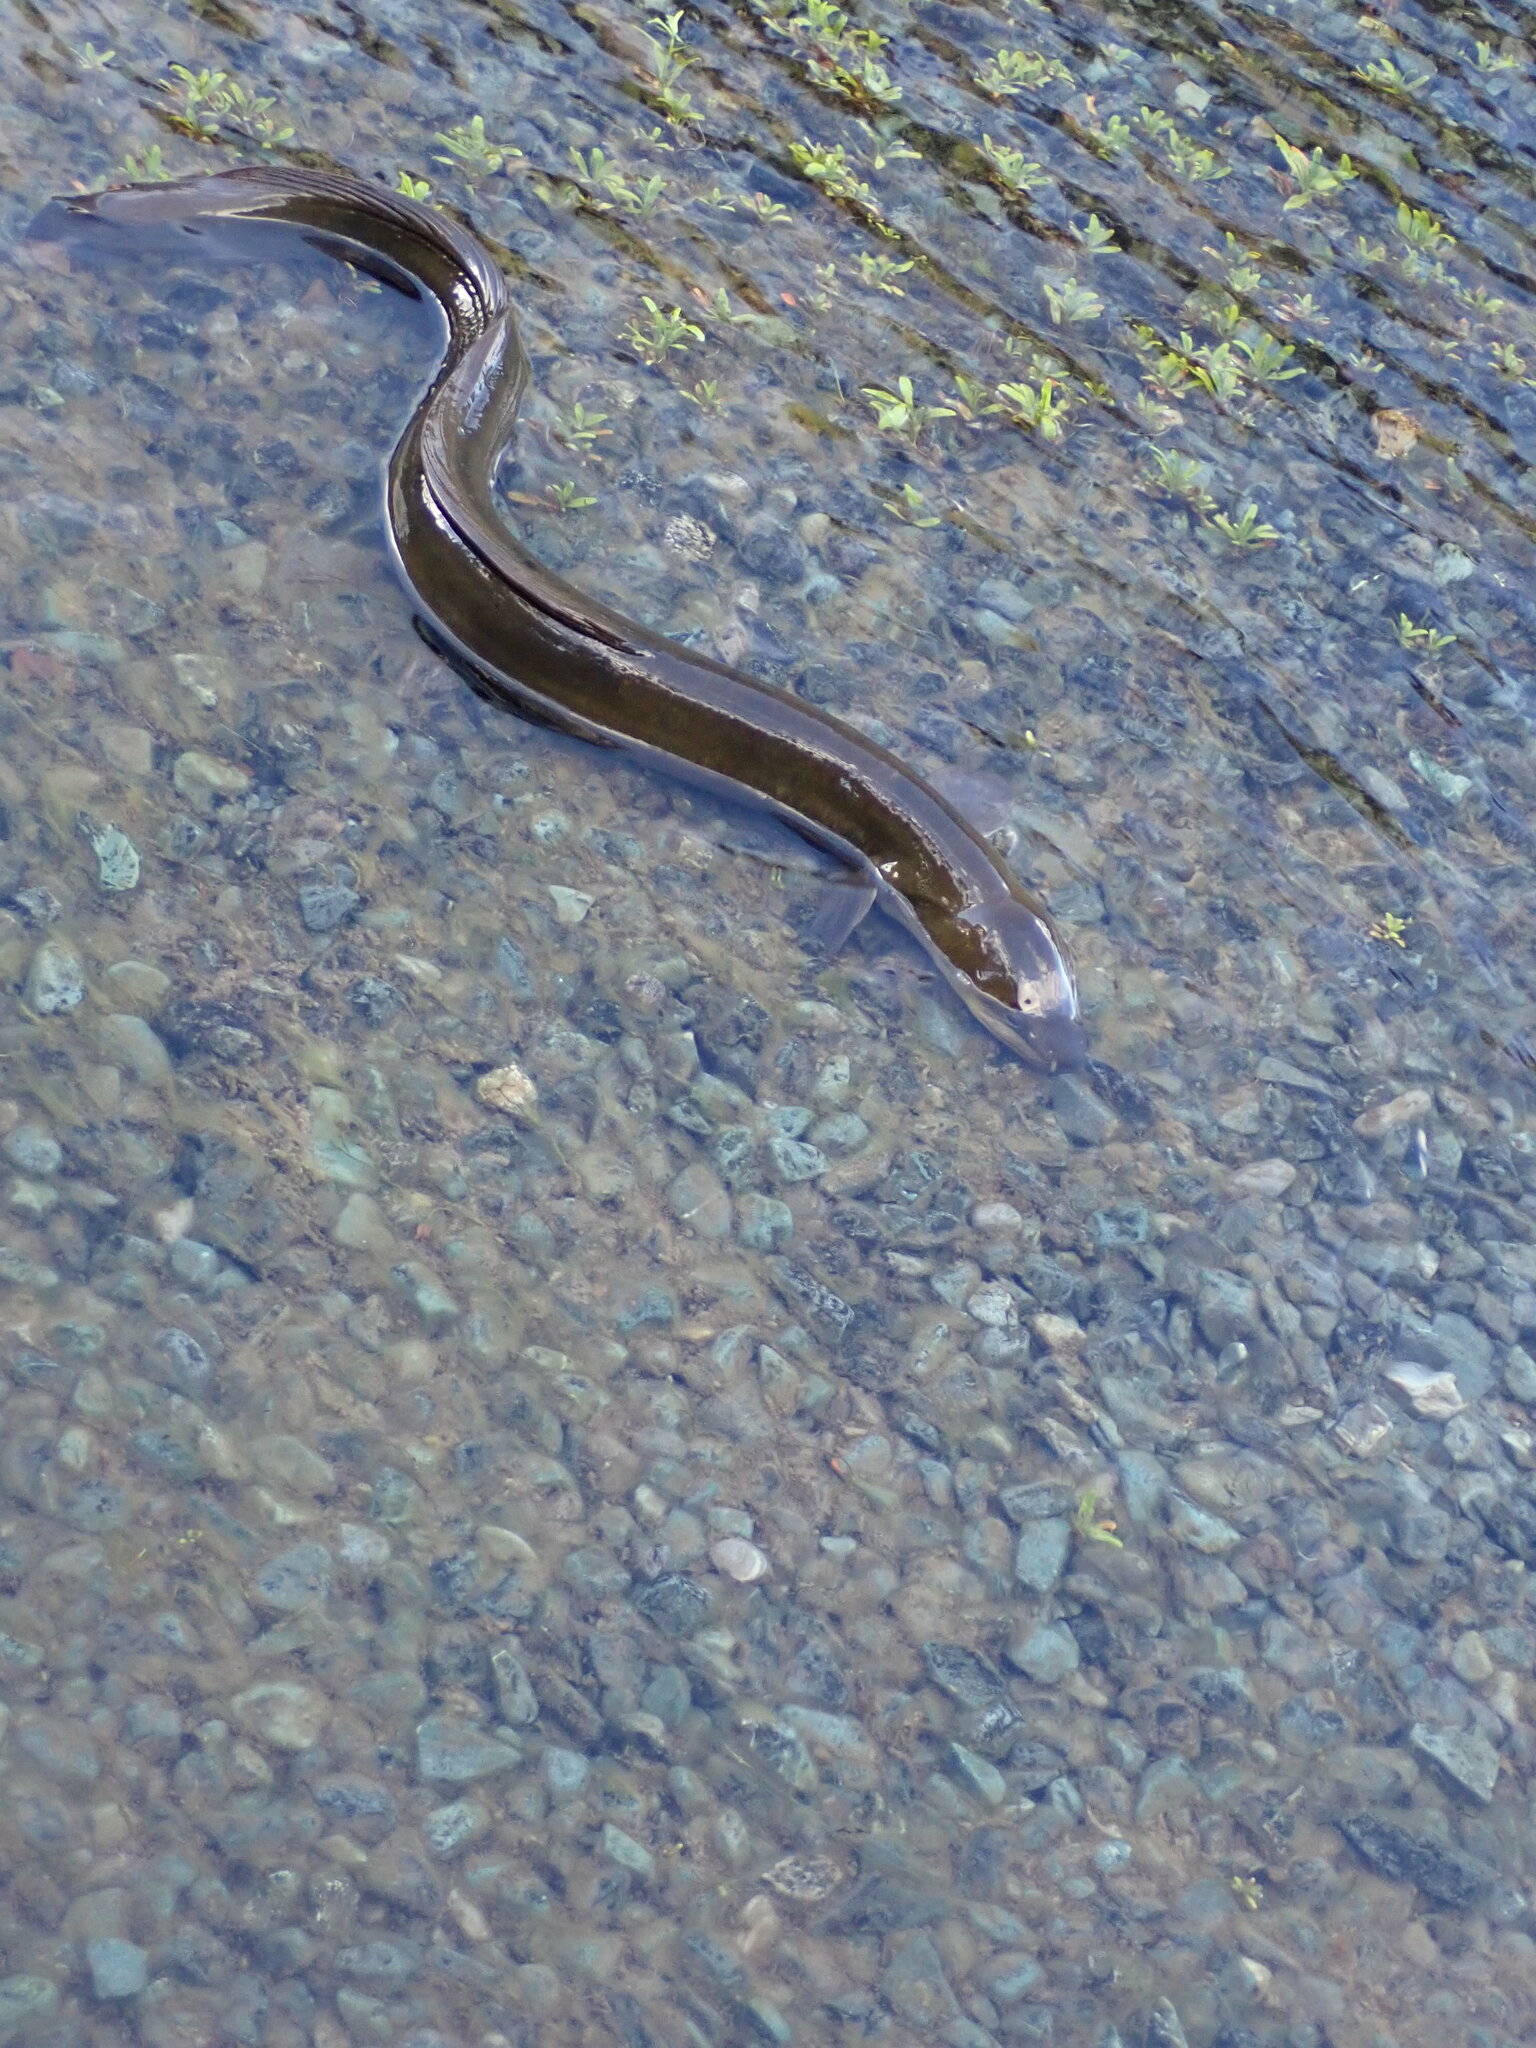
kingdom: Animalia
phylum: Chordata
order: Anguilliformes
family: Anguillidae
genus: Anguilla
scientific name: Anguilla dieffenbachii
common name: New zealand longfin eel
